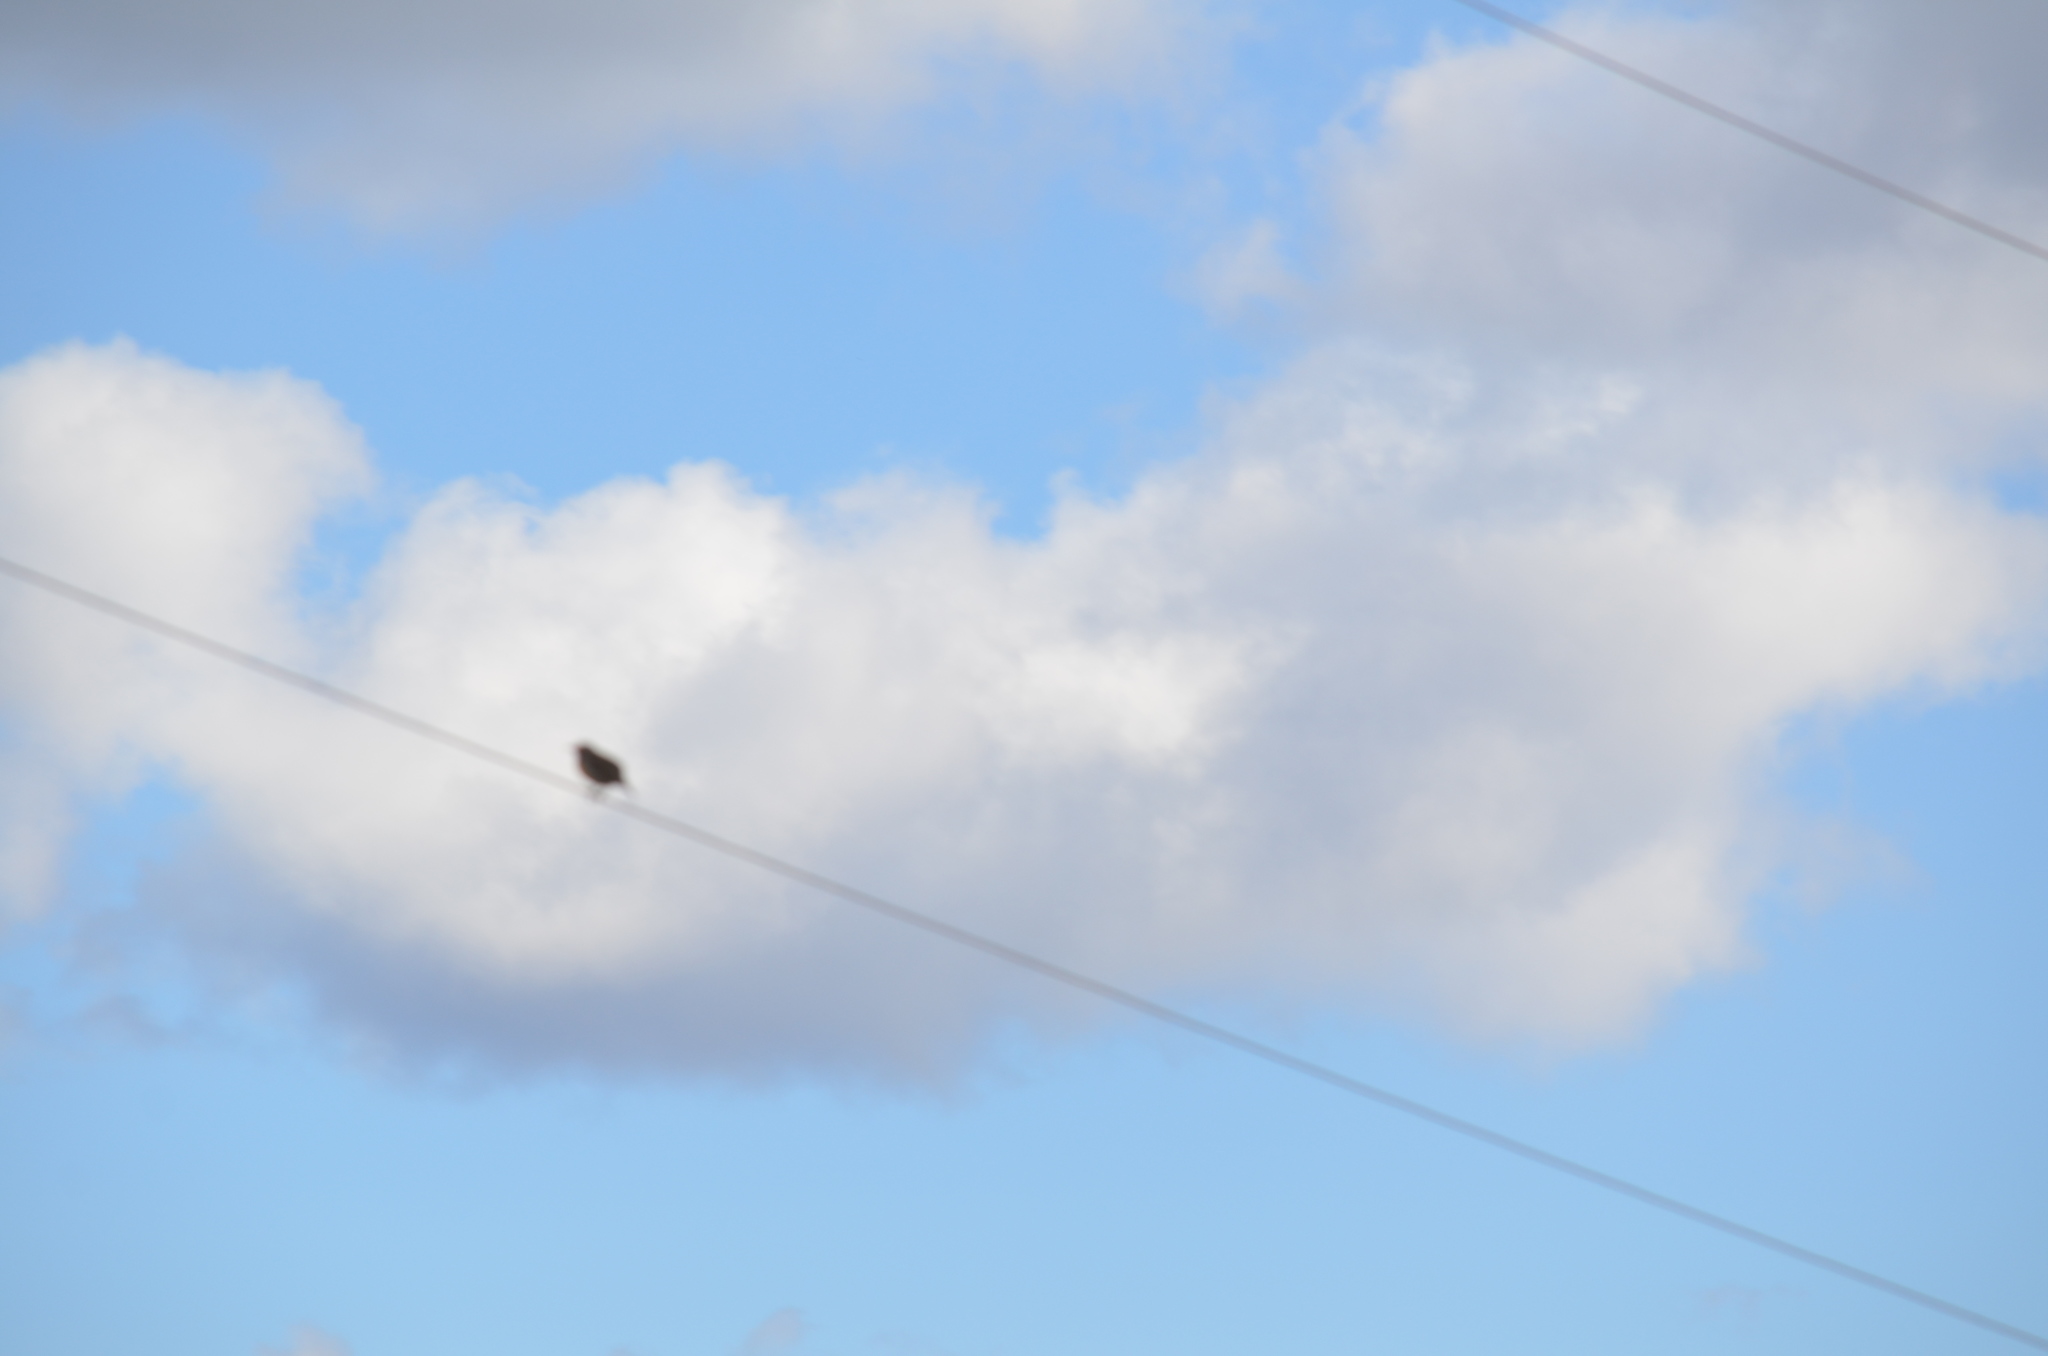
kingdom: Animalia
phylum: Chordata
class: Aves
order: Passeriformes
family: Icteridae
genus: Sturnella
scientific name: Sturnella neglecta
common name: Western meadowlark
